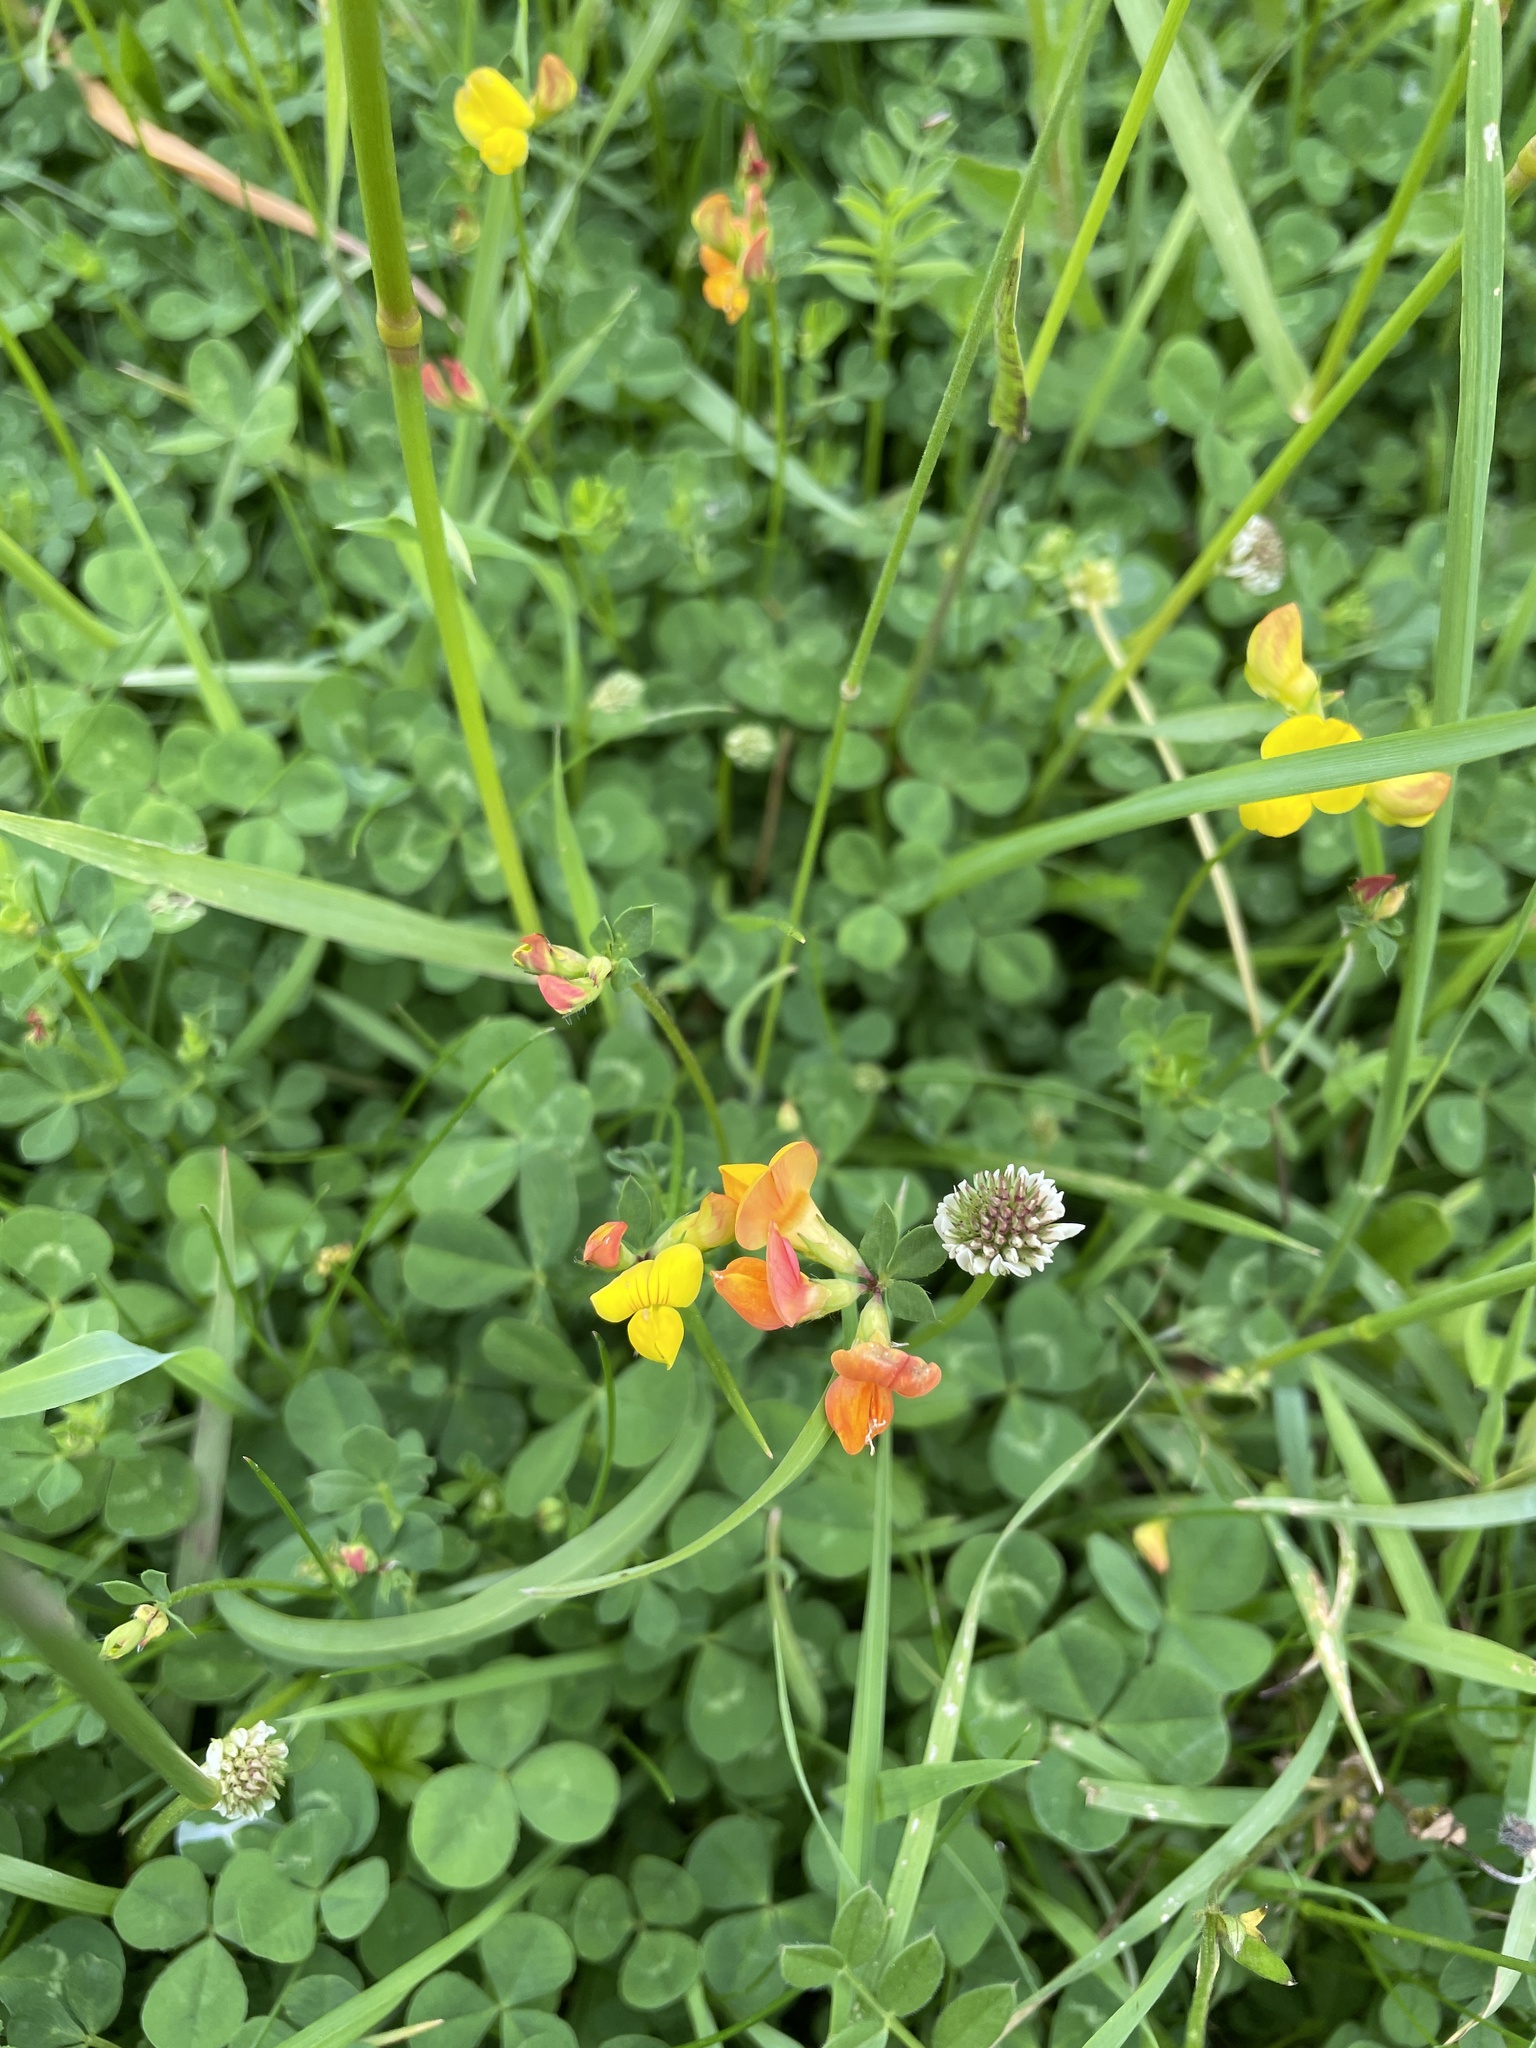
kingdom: Plantae
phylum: Tracheophyta
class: Magnoliopsida
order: Fabales
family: Fabaceae
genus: Lotus
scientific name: Lotus corniculatus
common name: Common bird's-foot-trefoil
